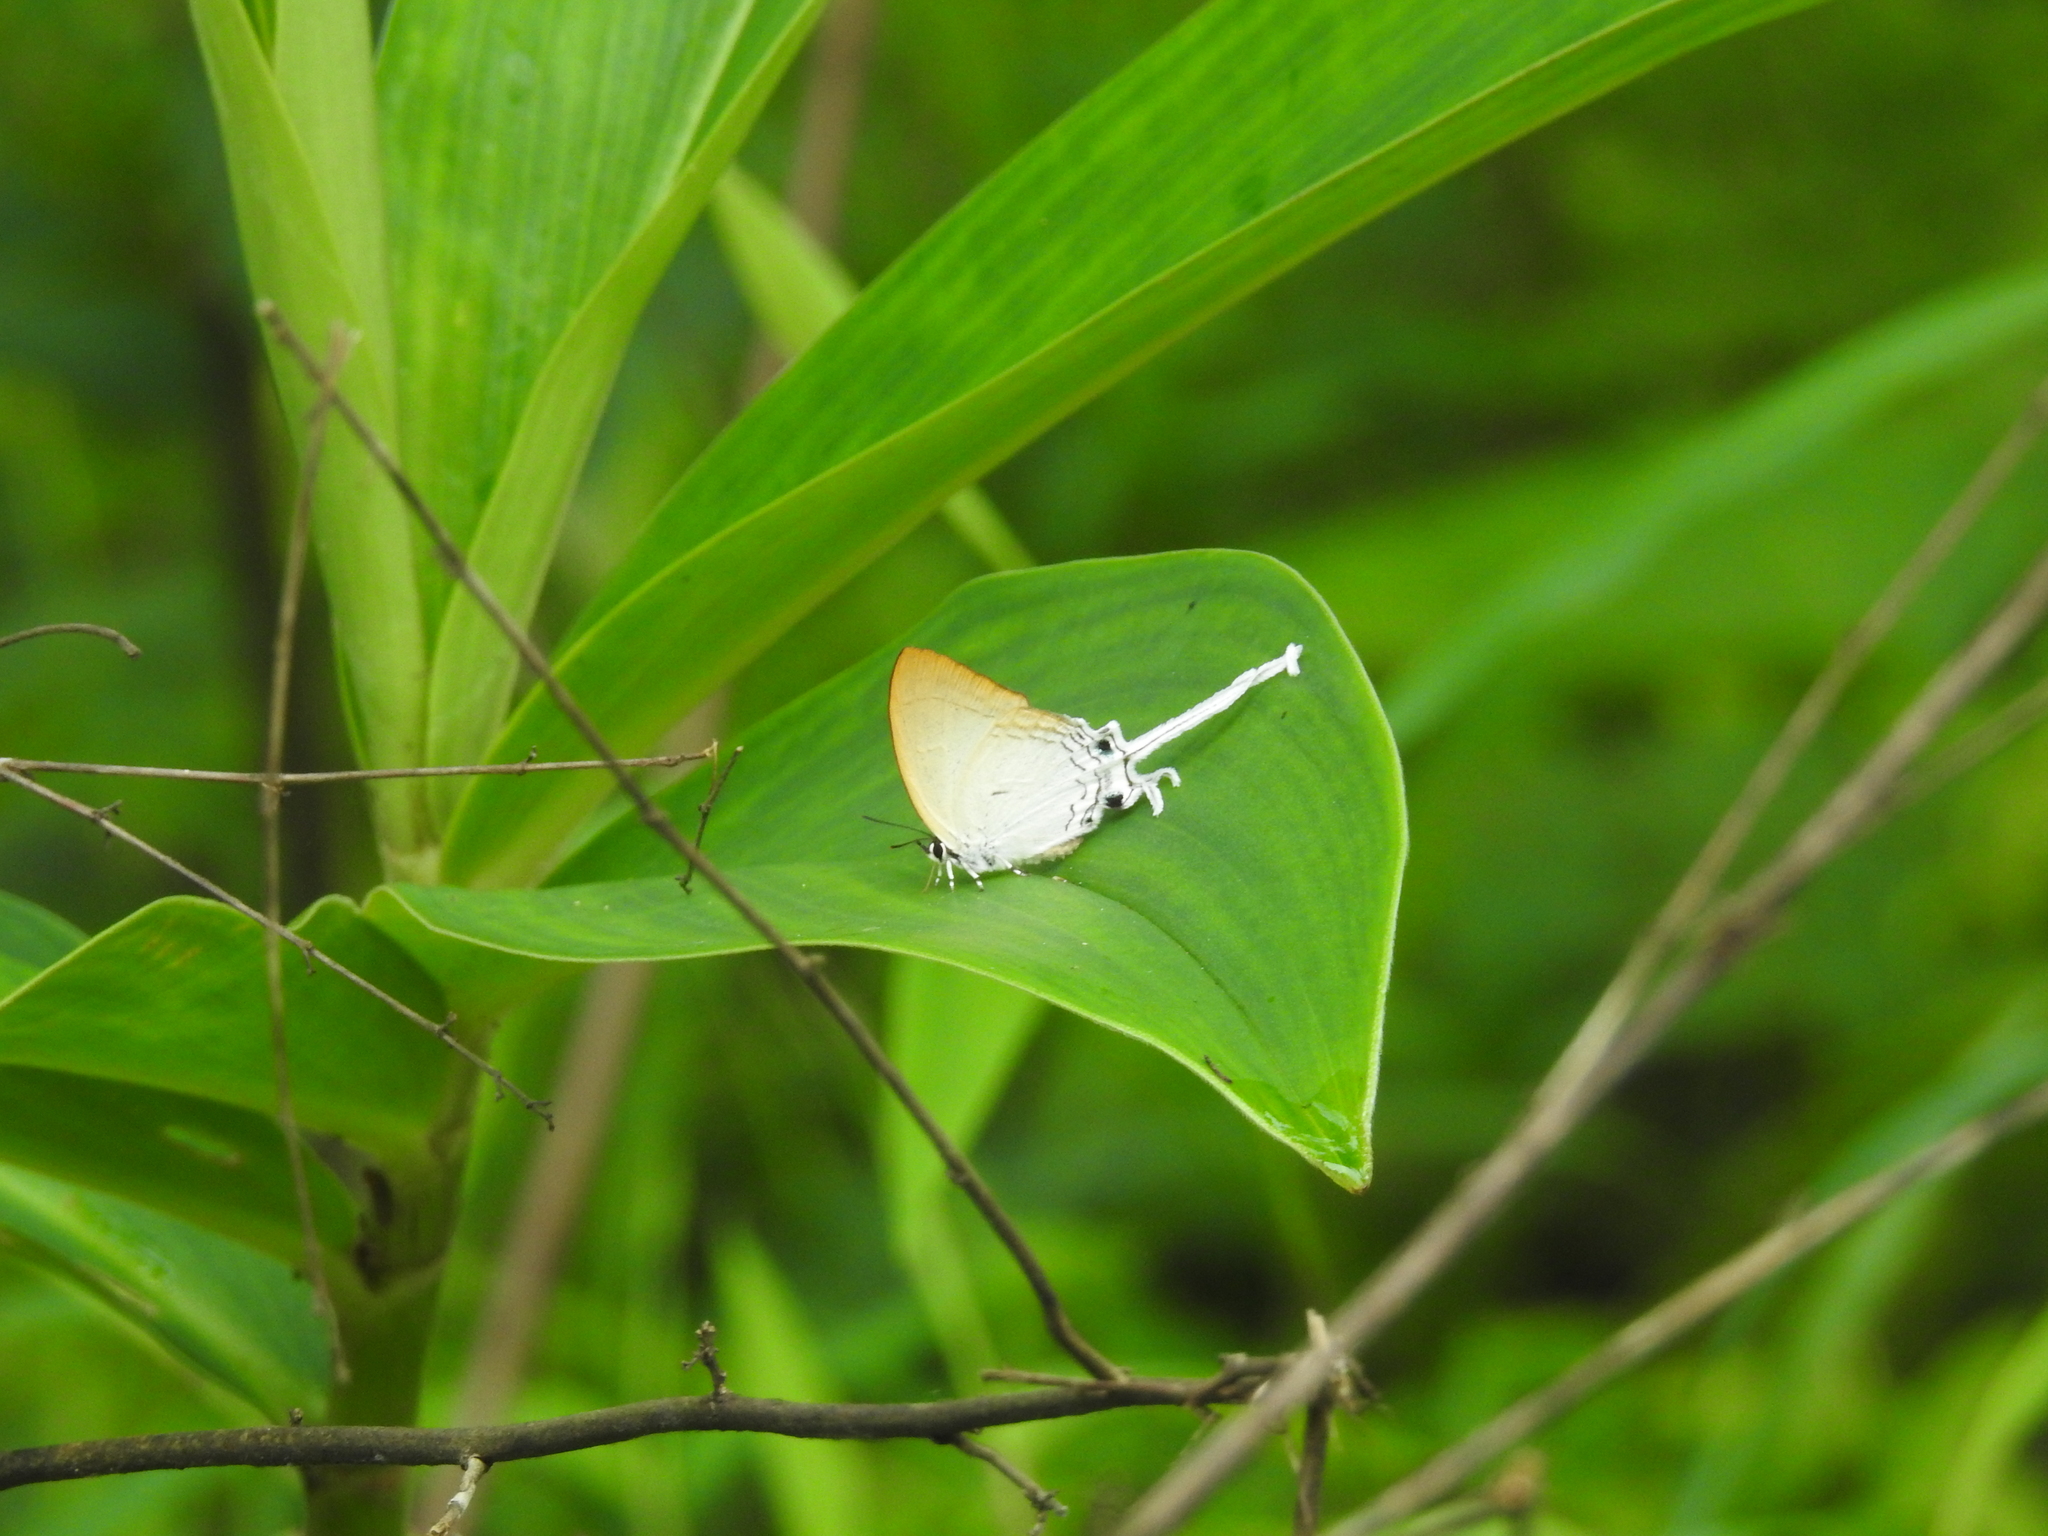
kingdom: Animalia
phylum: Arthropoda
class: Insecta
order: Lepidoptera
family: Lycaenidae
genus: Cheritra
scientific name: Cheritra freja
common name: Common imperial
